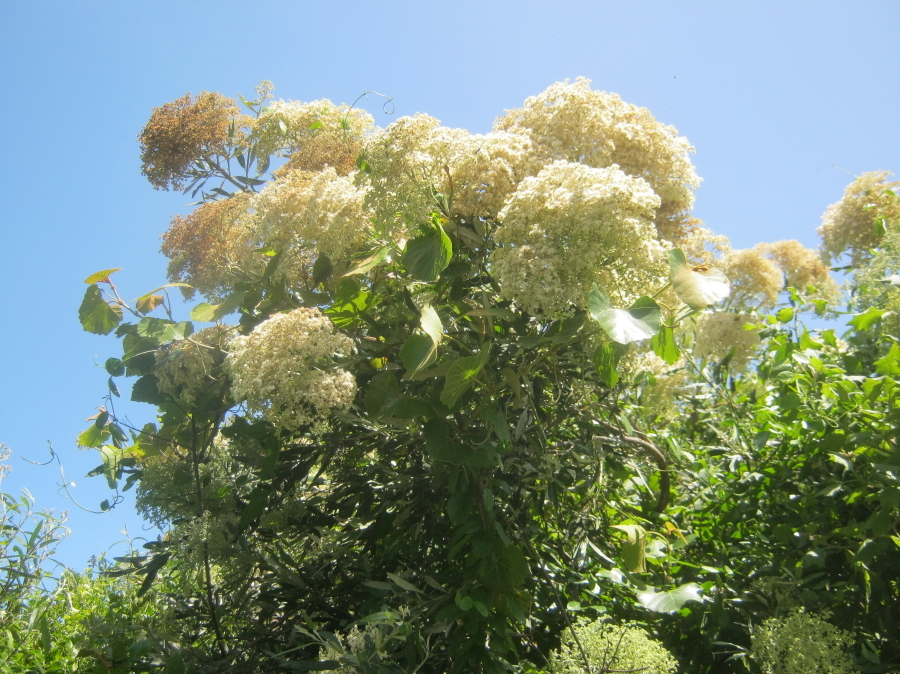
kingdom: Plantae
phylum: Tracheophyta
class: Magnoliopsida
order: Lamiales
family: Scrophulariaceae
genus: Buddleja
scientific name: Buddleja saligna
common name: False olive
